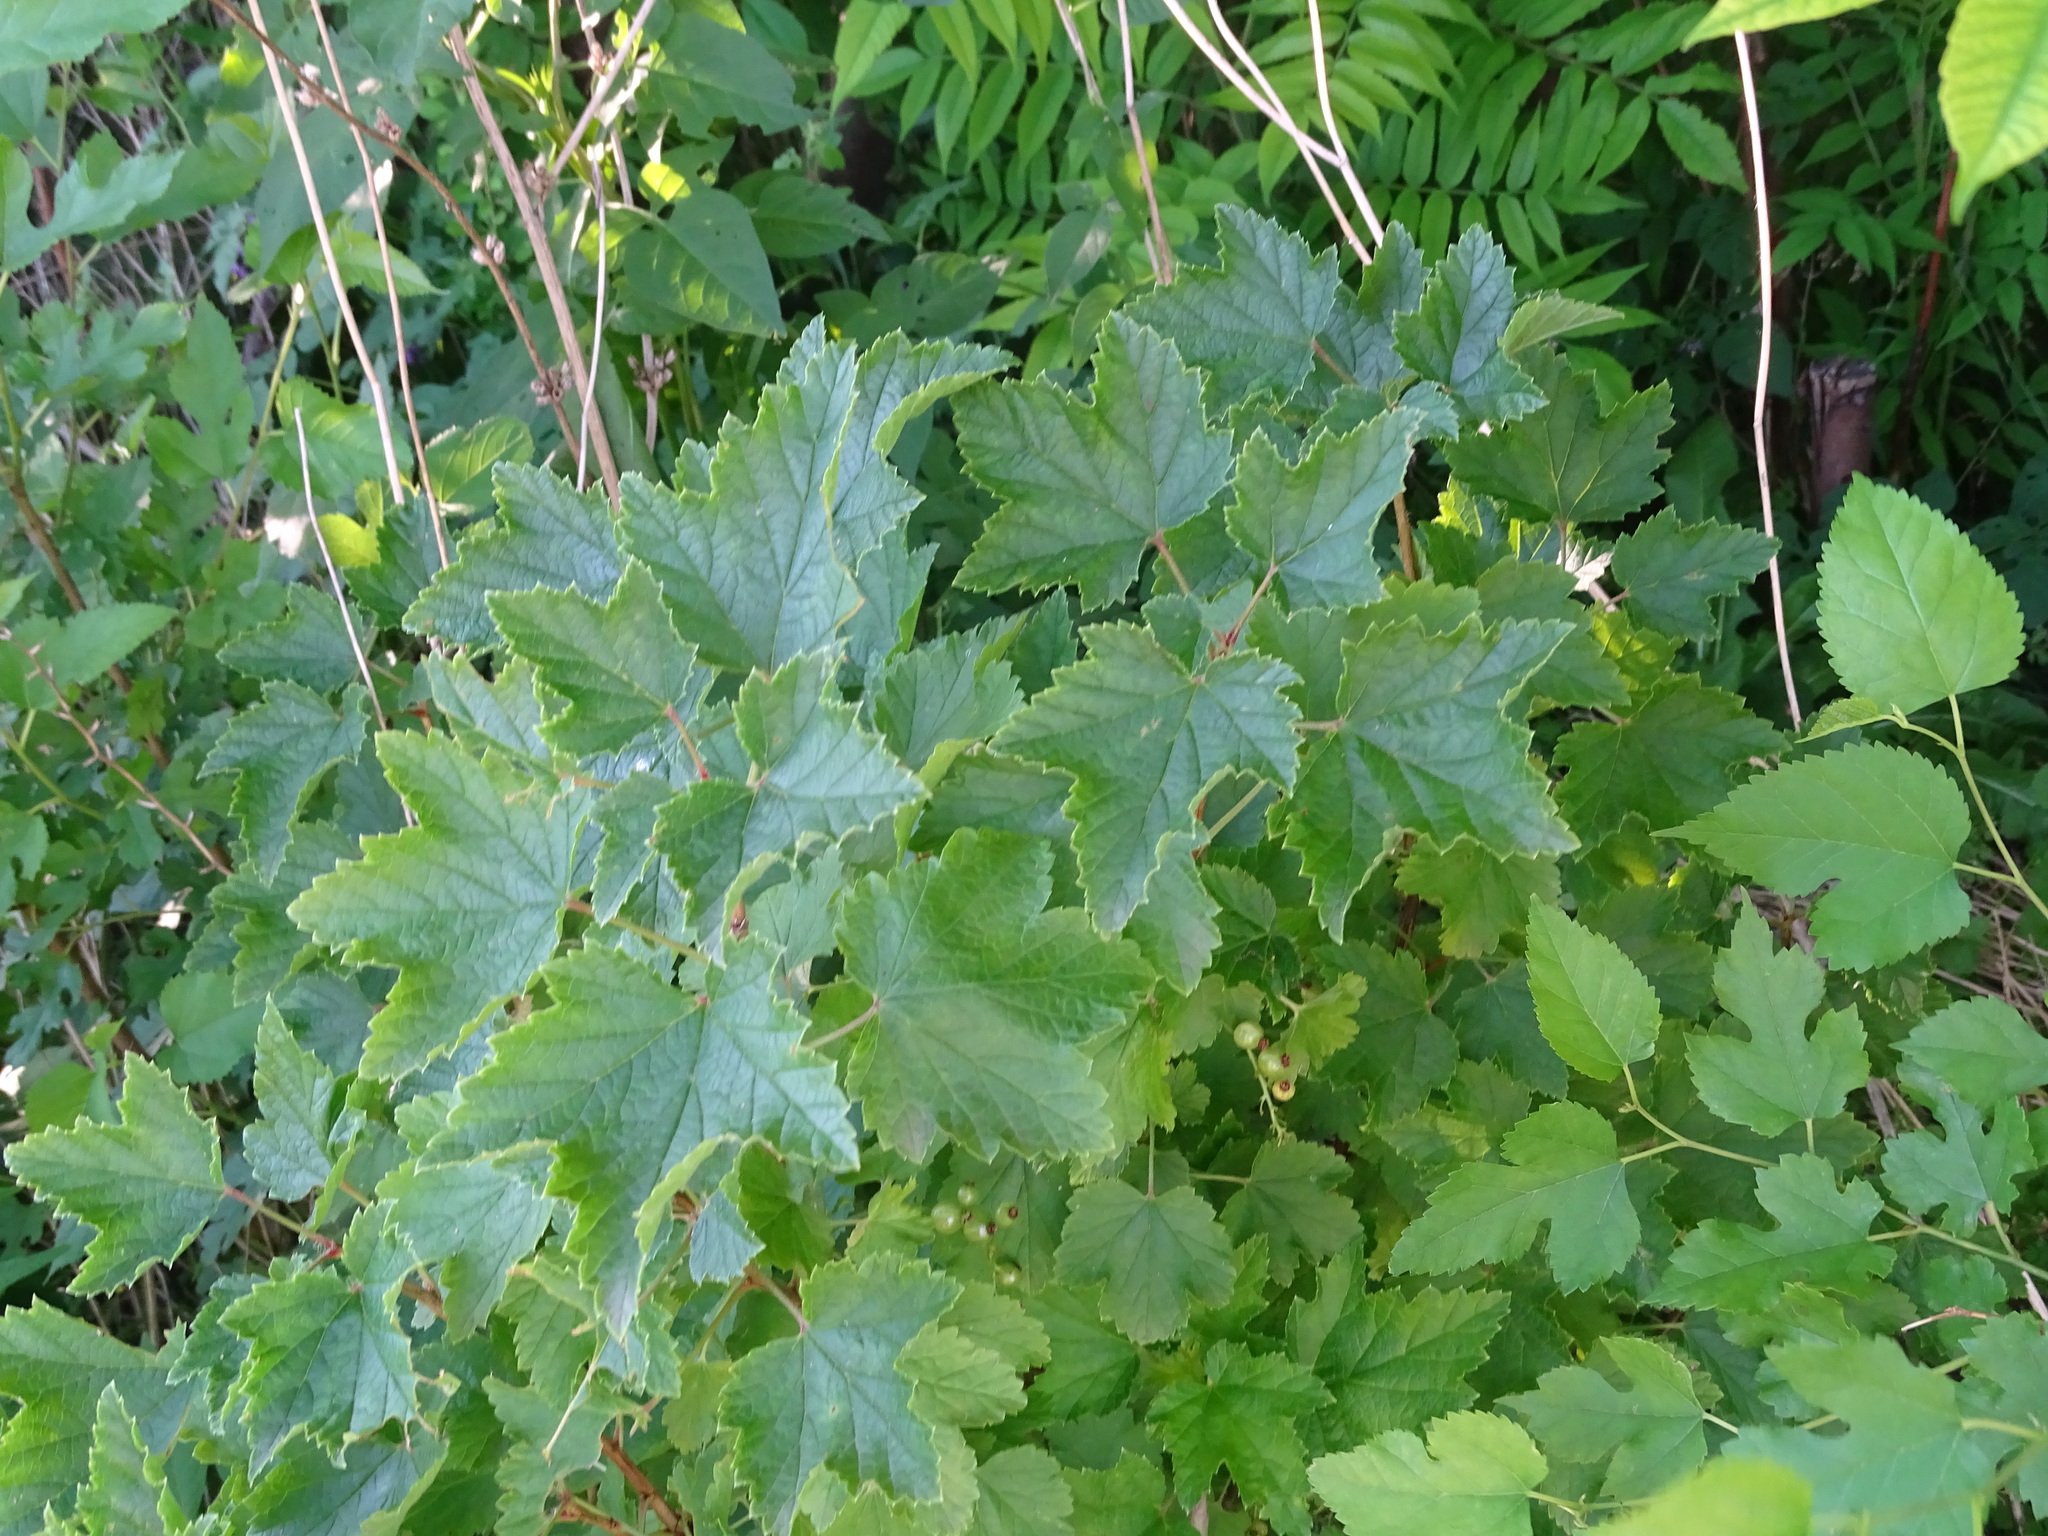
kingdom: Plantae
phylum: Tracheophyta
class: Magnoliopsida
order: Saxifragales
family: Grossulariaceae
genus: Ribes
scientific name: Ribes rubrum
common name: Red currant
